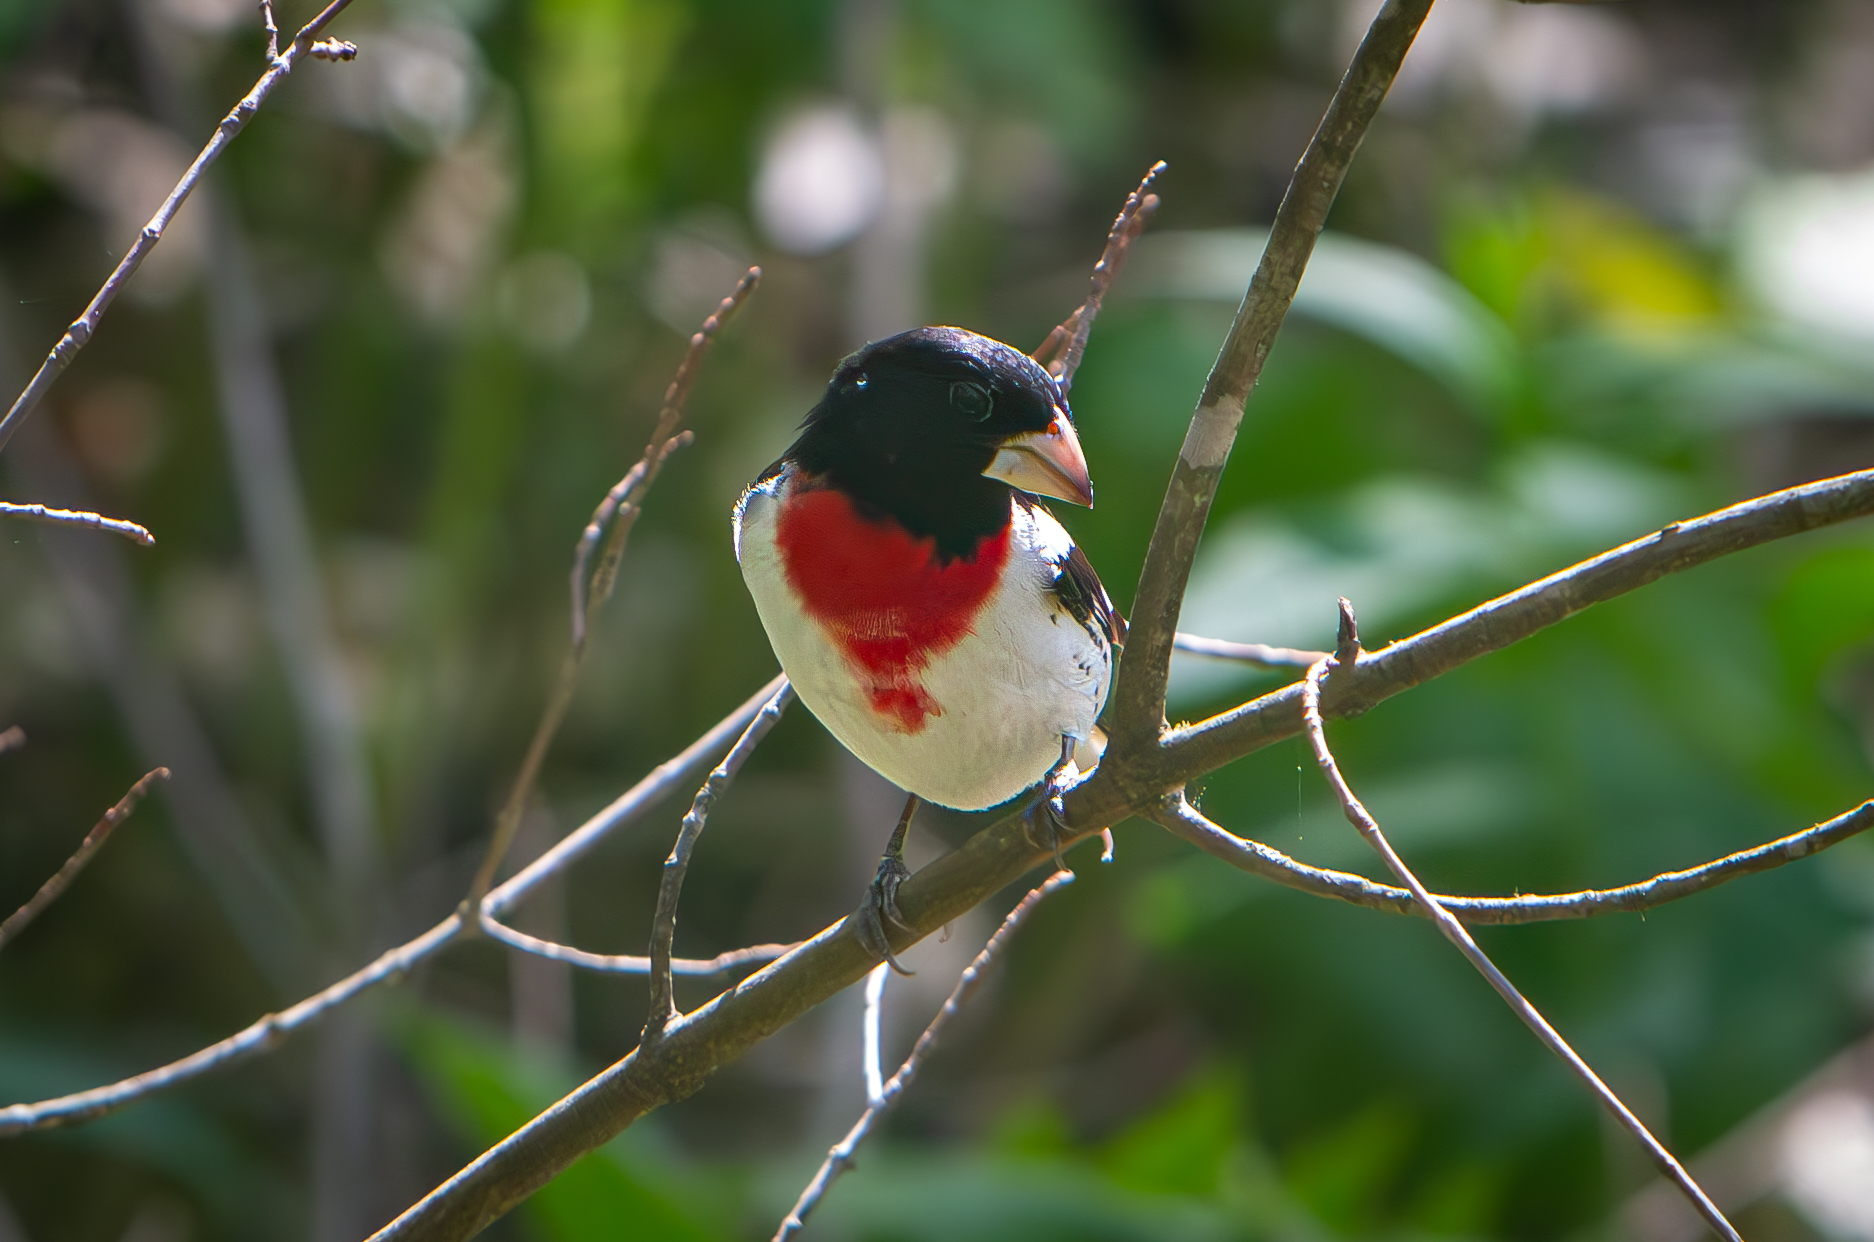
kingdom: Animalia
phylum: Chordata
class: Aves
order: Passeriformes
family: Cardinalidae
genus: Pheucticus
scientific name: Pheucticus ludovicianus
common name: Rose-breasted grosbeak
